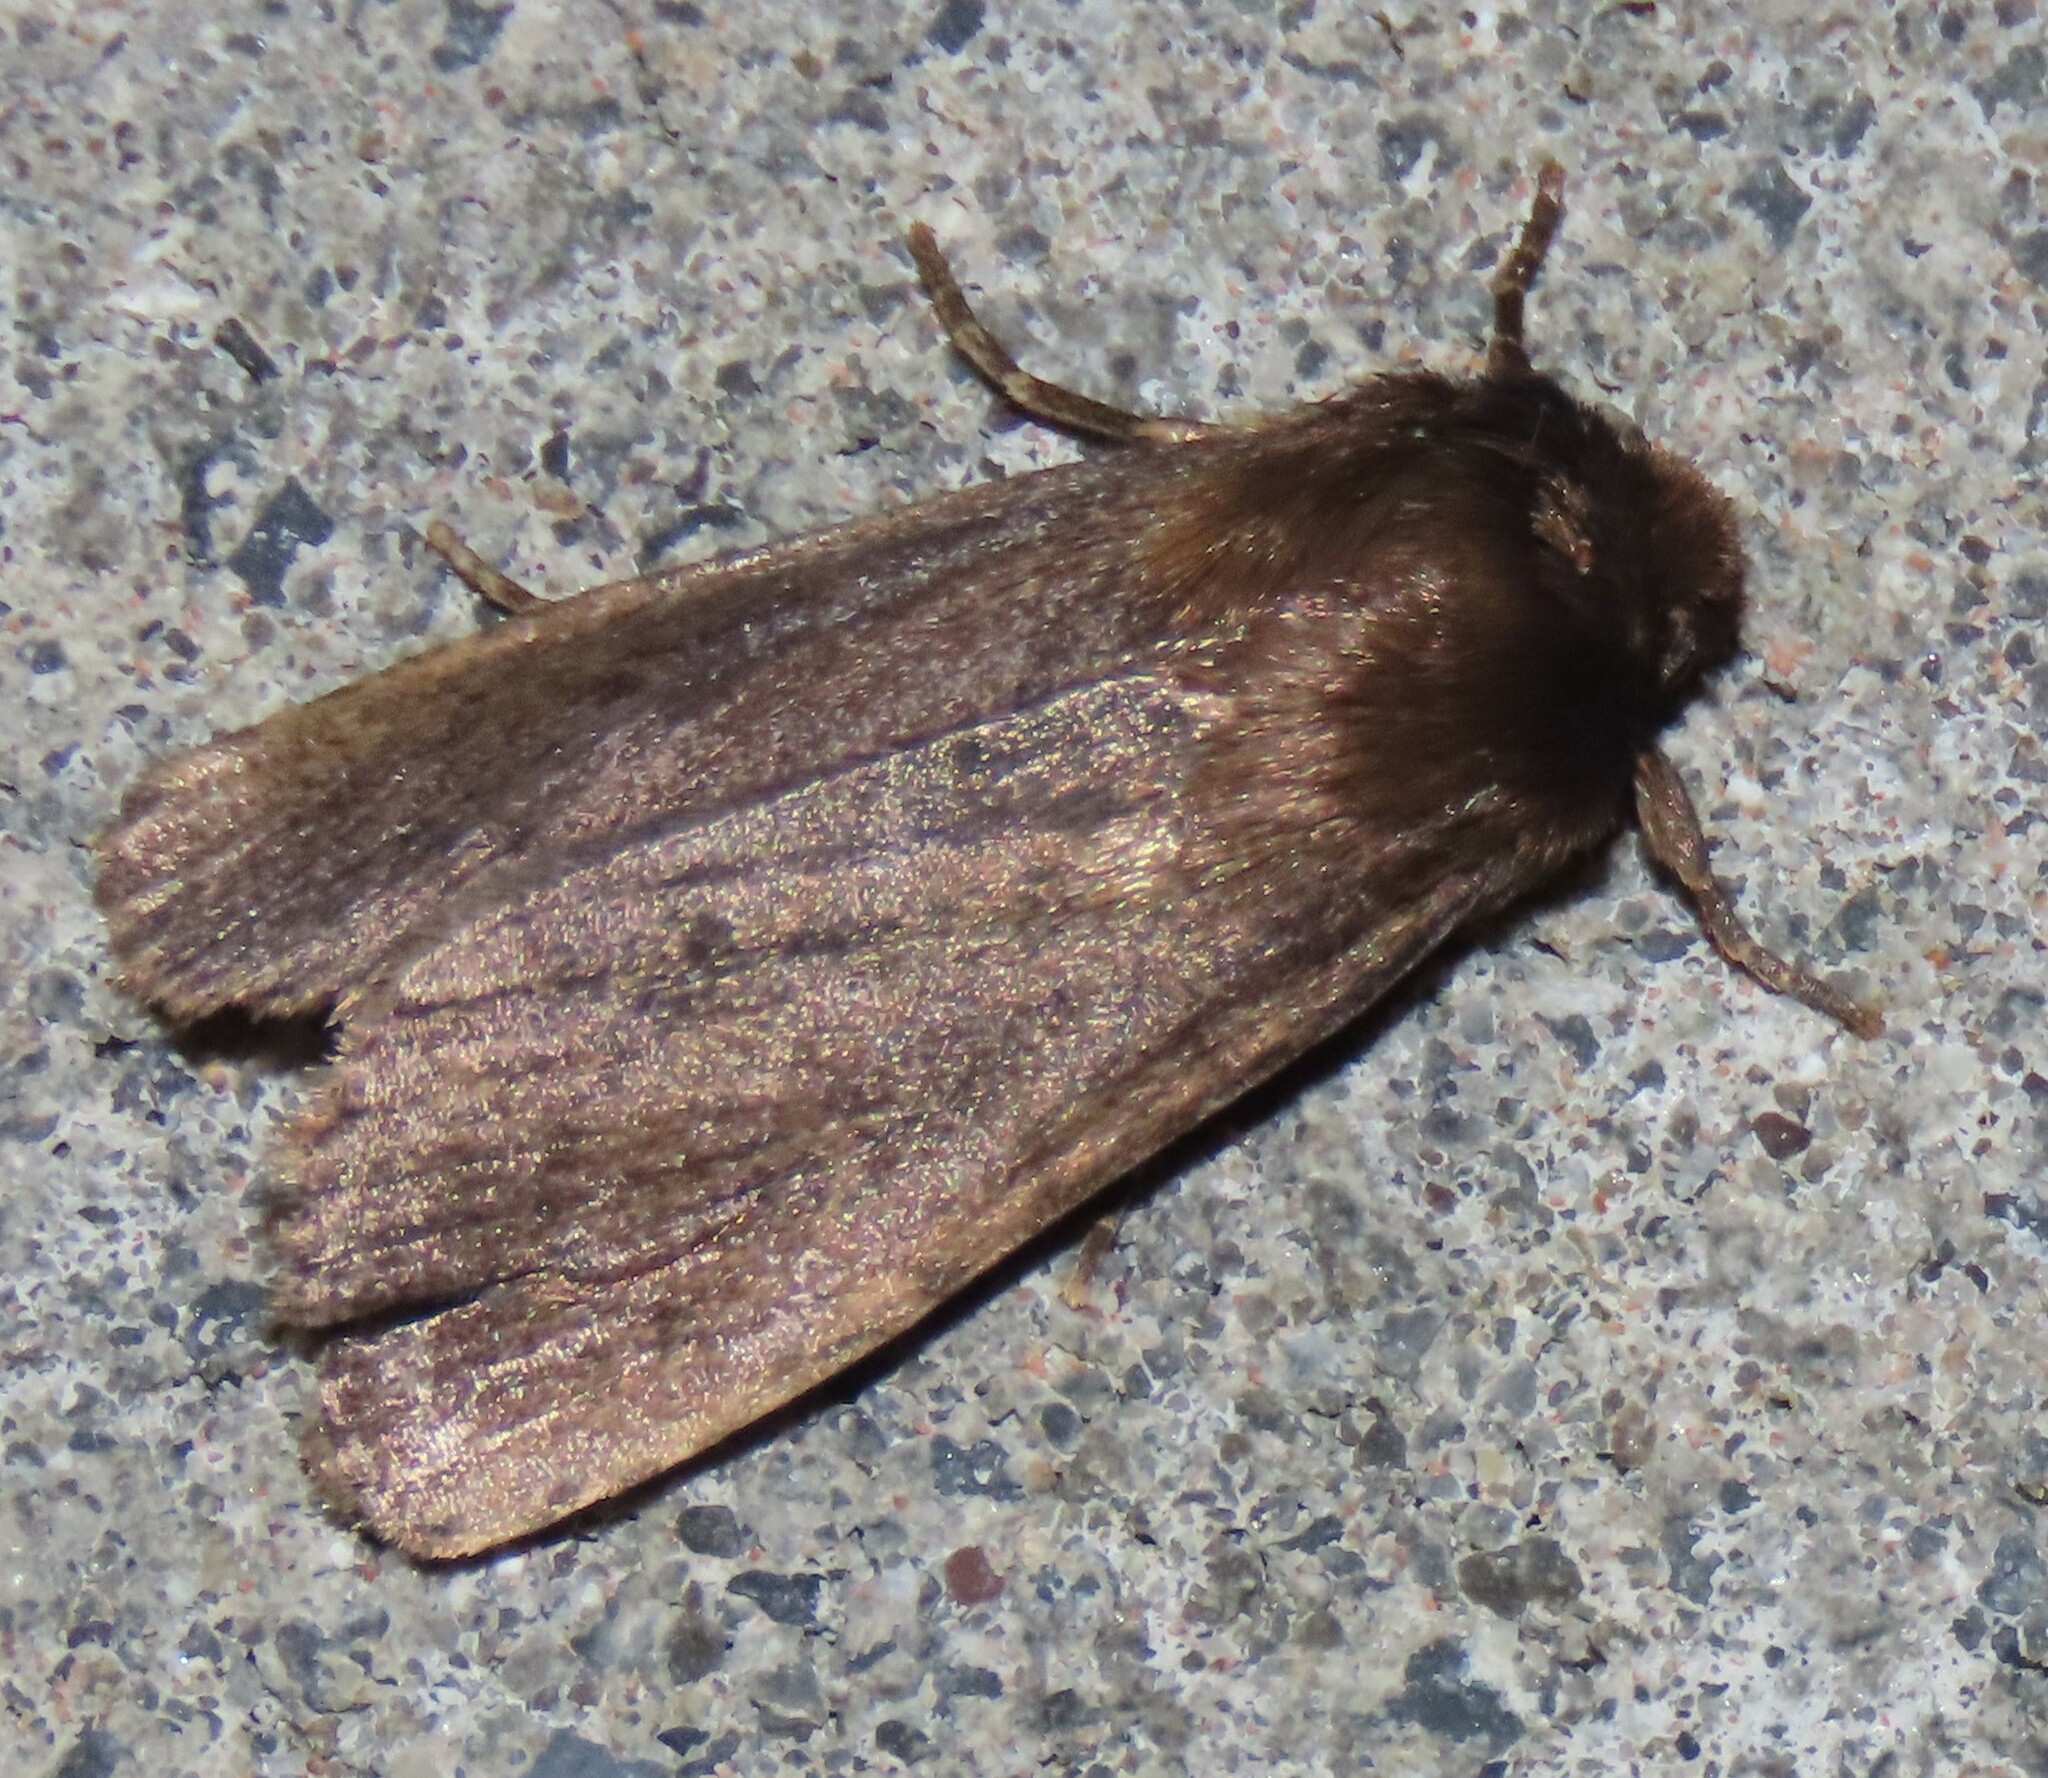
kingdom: Animalia
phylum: Arthropoda
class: Insecta
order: Lepidoptera
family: Noctuidae
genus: Bityla
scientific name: Bityla defigurata
